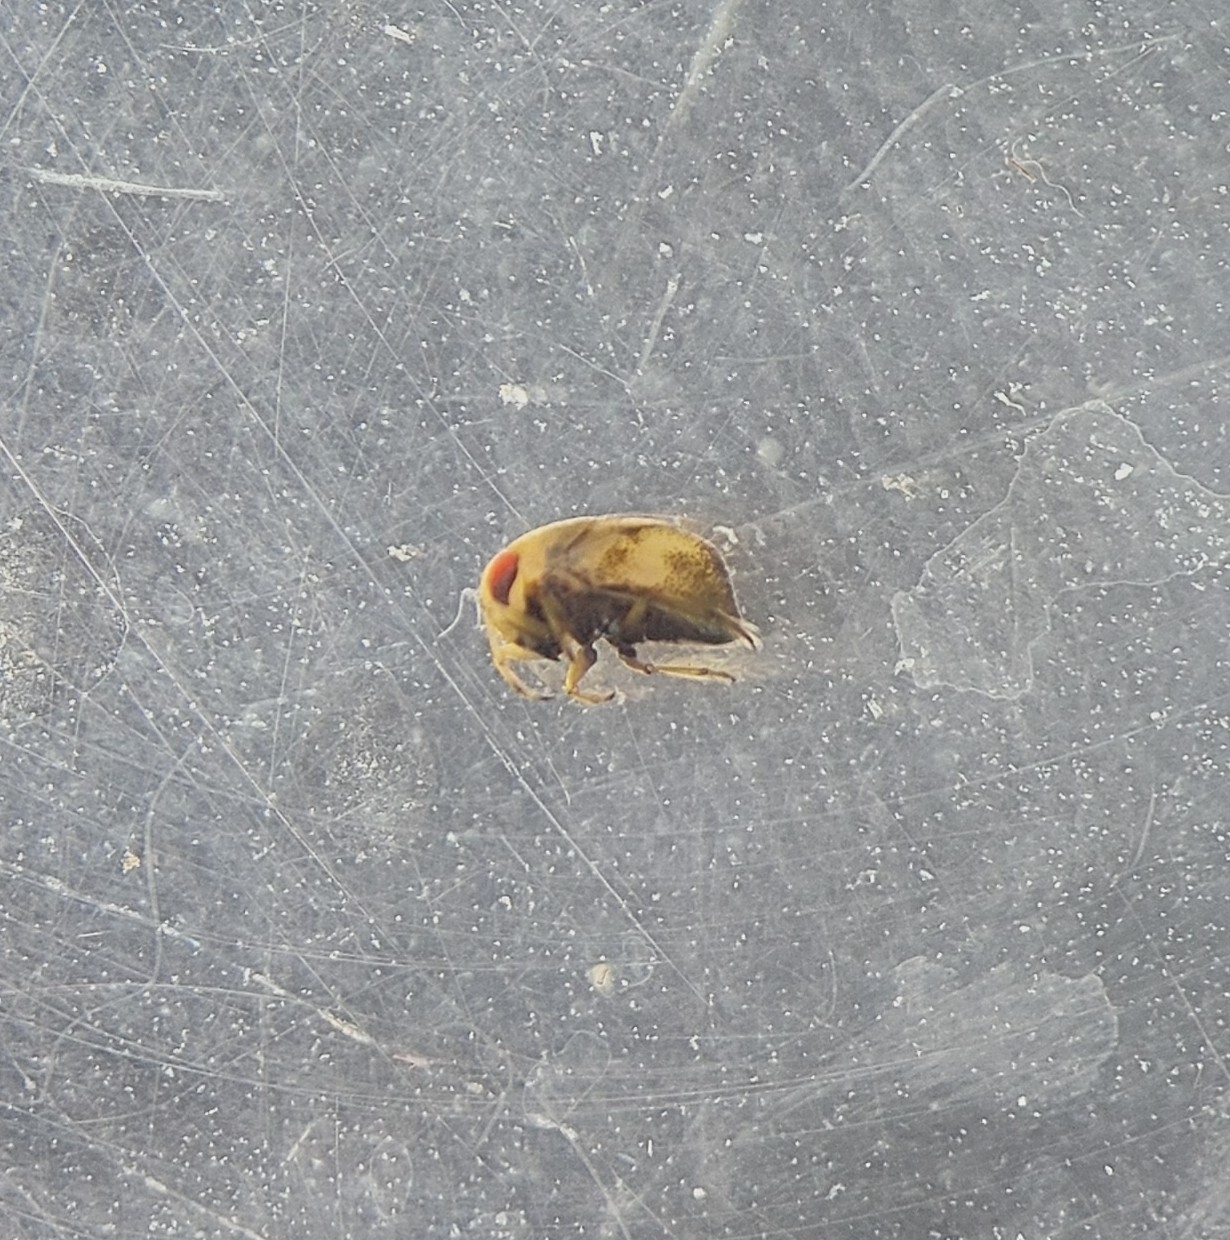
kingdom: Animalia
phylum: Arthropoda
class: Insecta
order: Hemiptera
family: Pleidae
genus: Plea
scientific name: Plea minutissima
